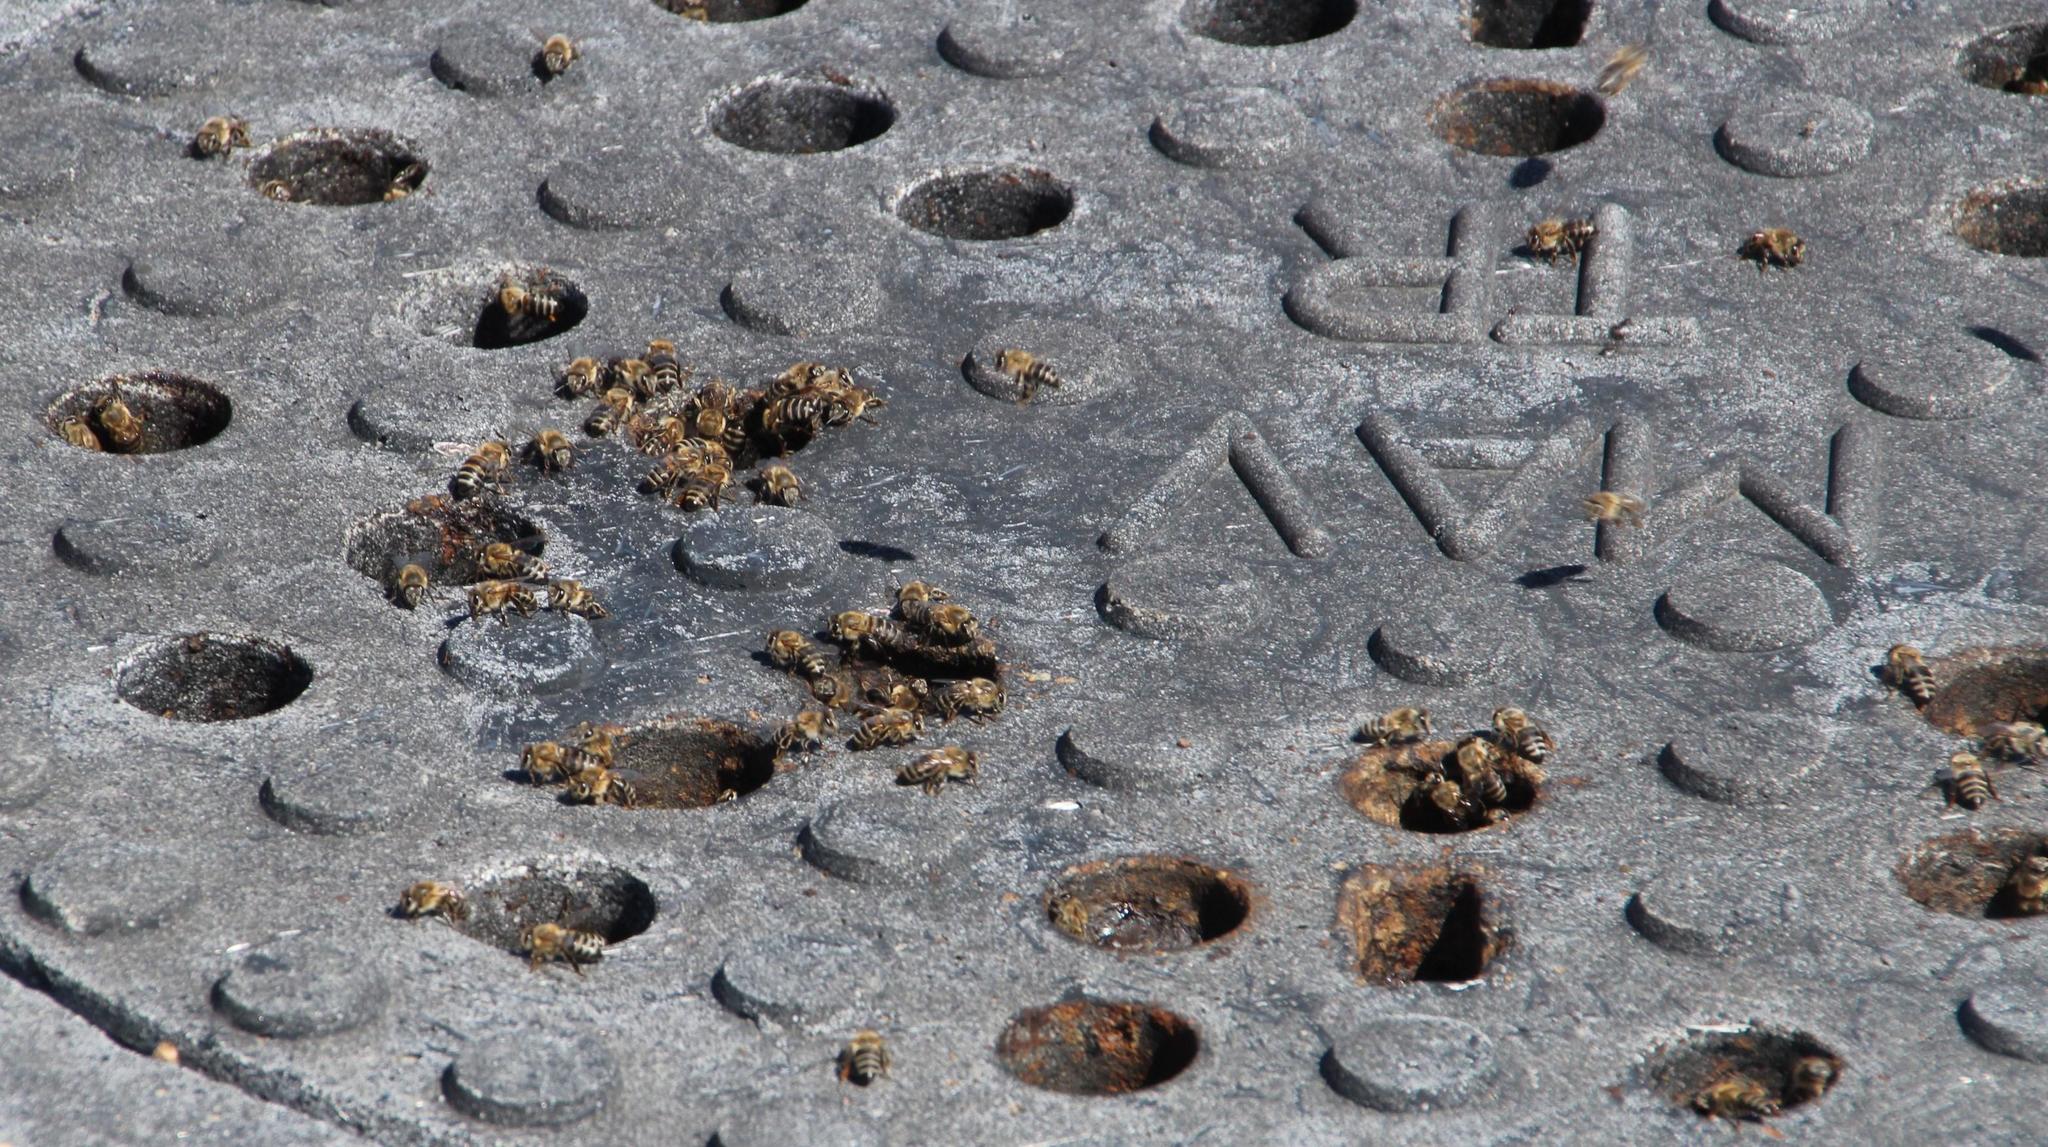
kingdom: Animalia
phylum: Arthropoda
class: Insecta
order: Hymenoptera
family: Apidae
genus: Apis
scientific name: Apis mellifera
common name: Honey bee
